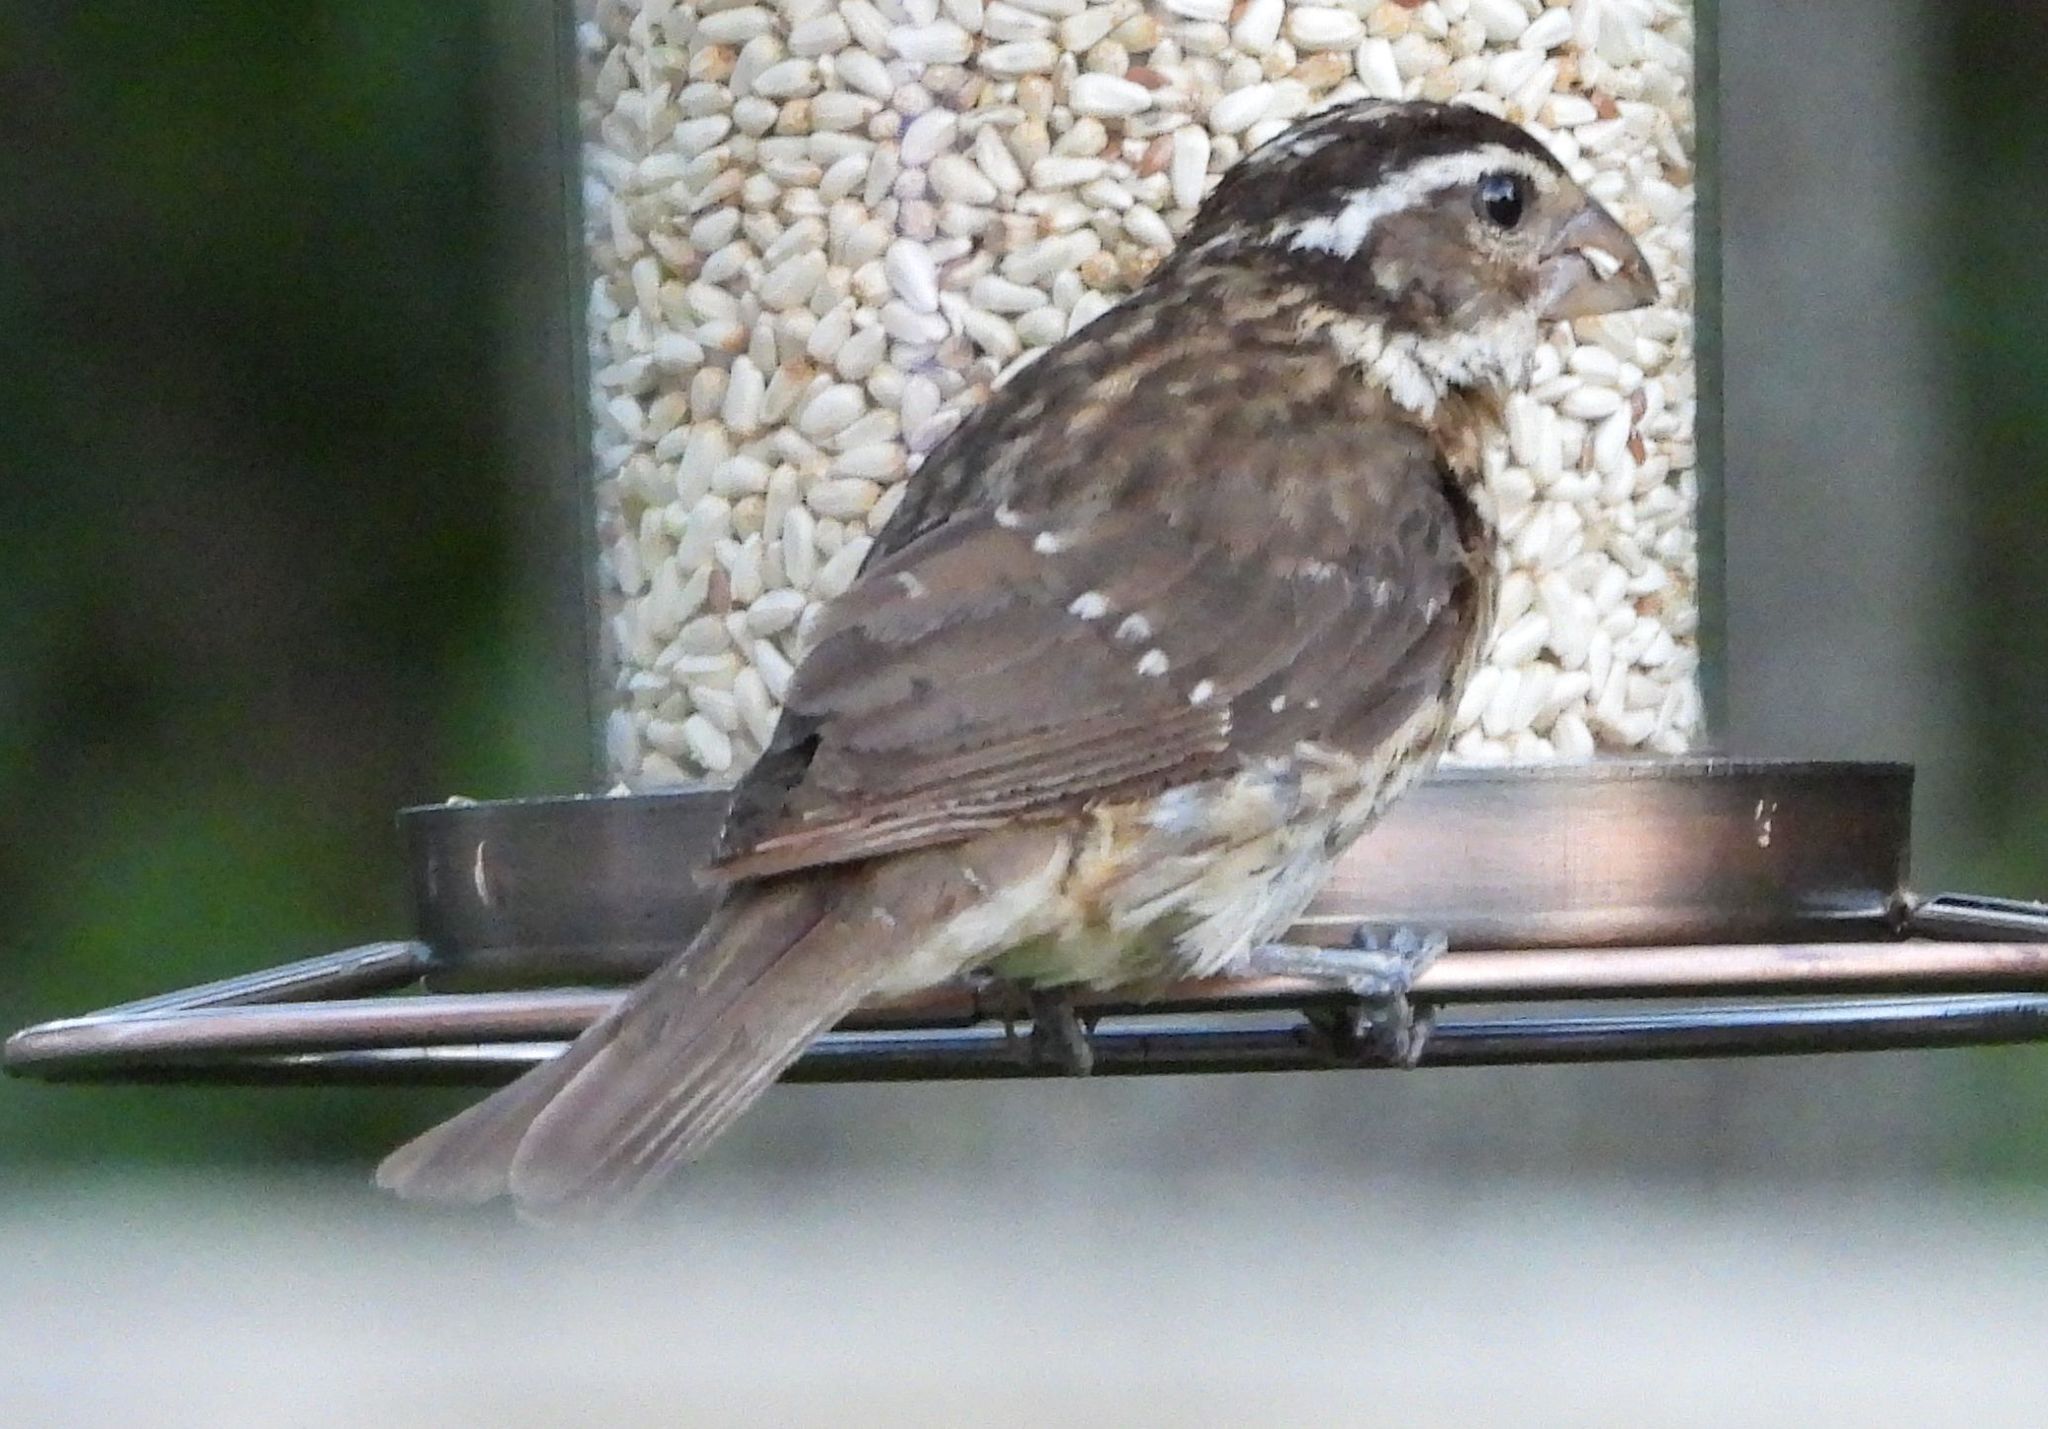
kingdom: Animalia
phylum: Chordata
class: Aves
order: Passeriformes
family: Cardinalidae
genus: Pheucticus
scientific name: Pheucticus ludovicianus
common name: Rose-breasted grosbeak
